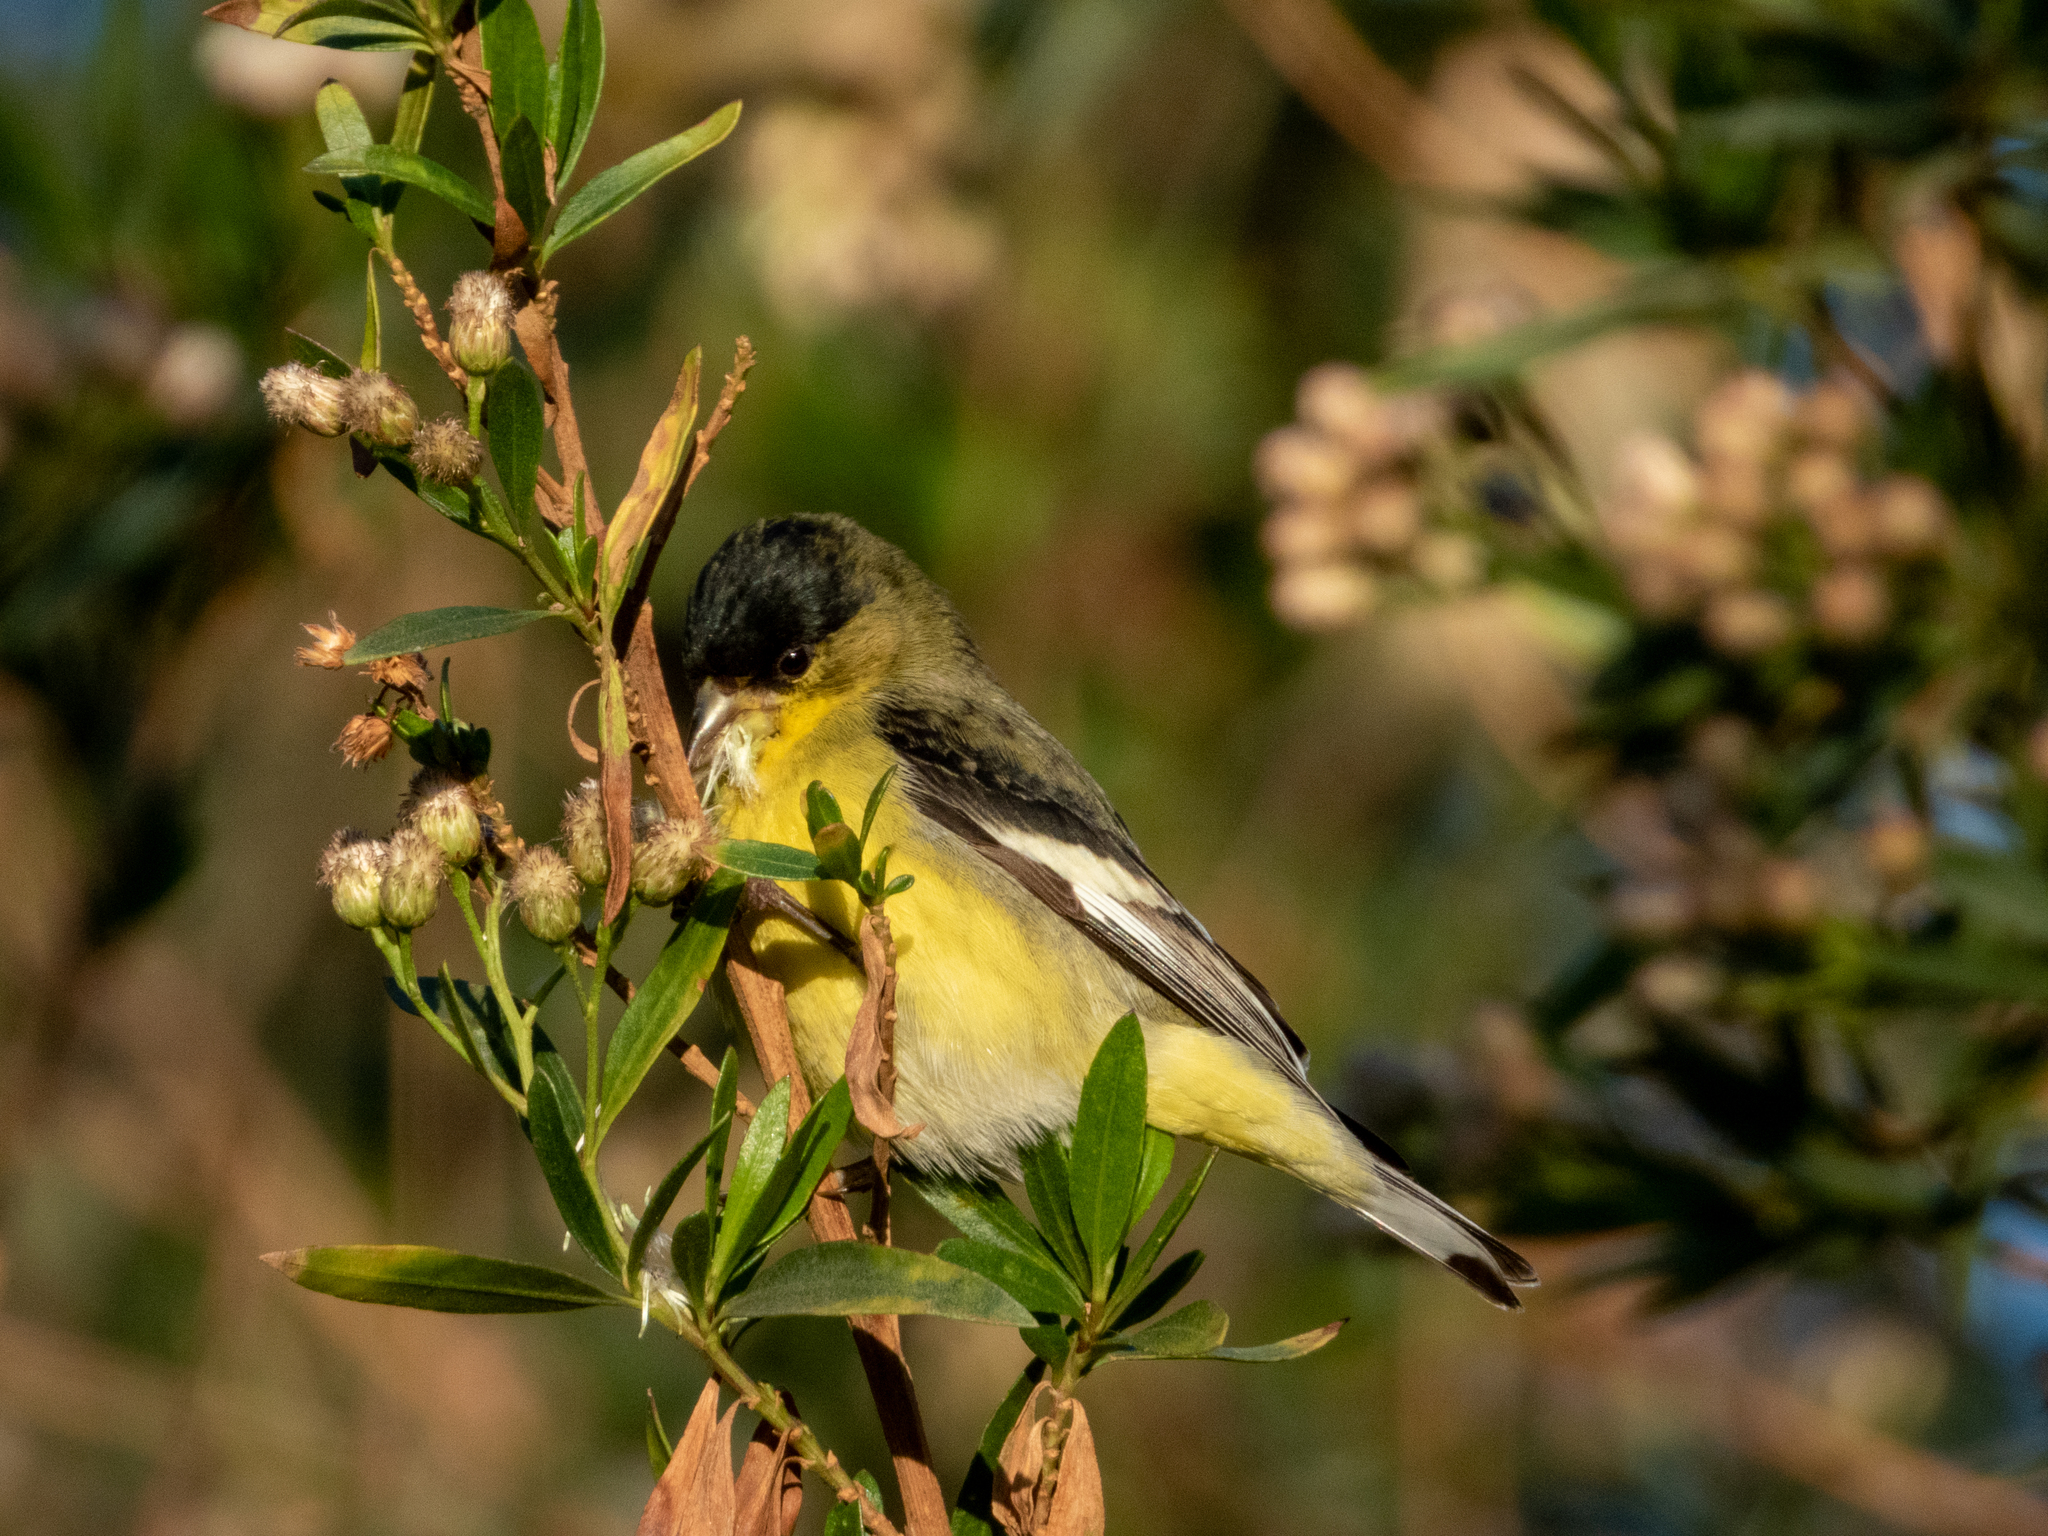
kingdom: Animalia
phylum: Chordata
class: Aves
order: Passeriformes
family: Fringillidae
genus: Spinus
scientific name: Spinus psaltria
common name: Lesser goldfinch
